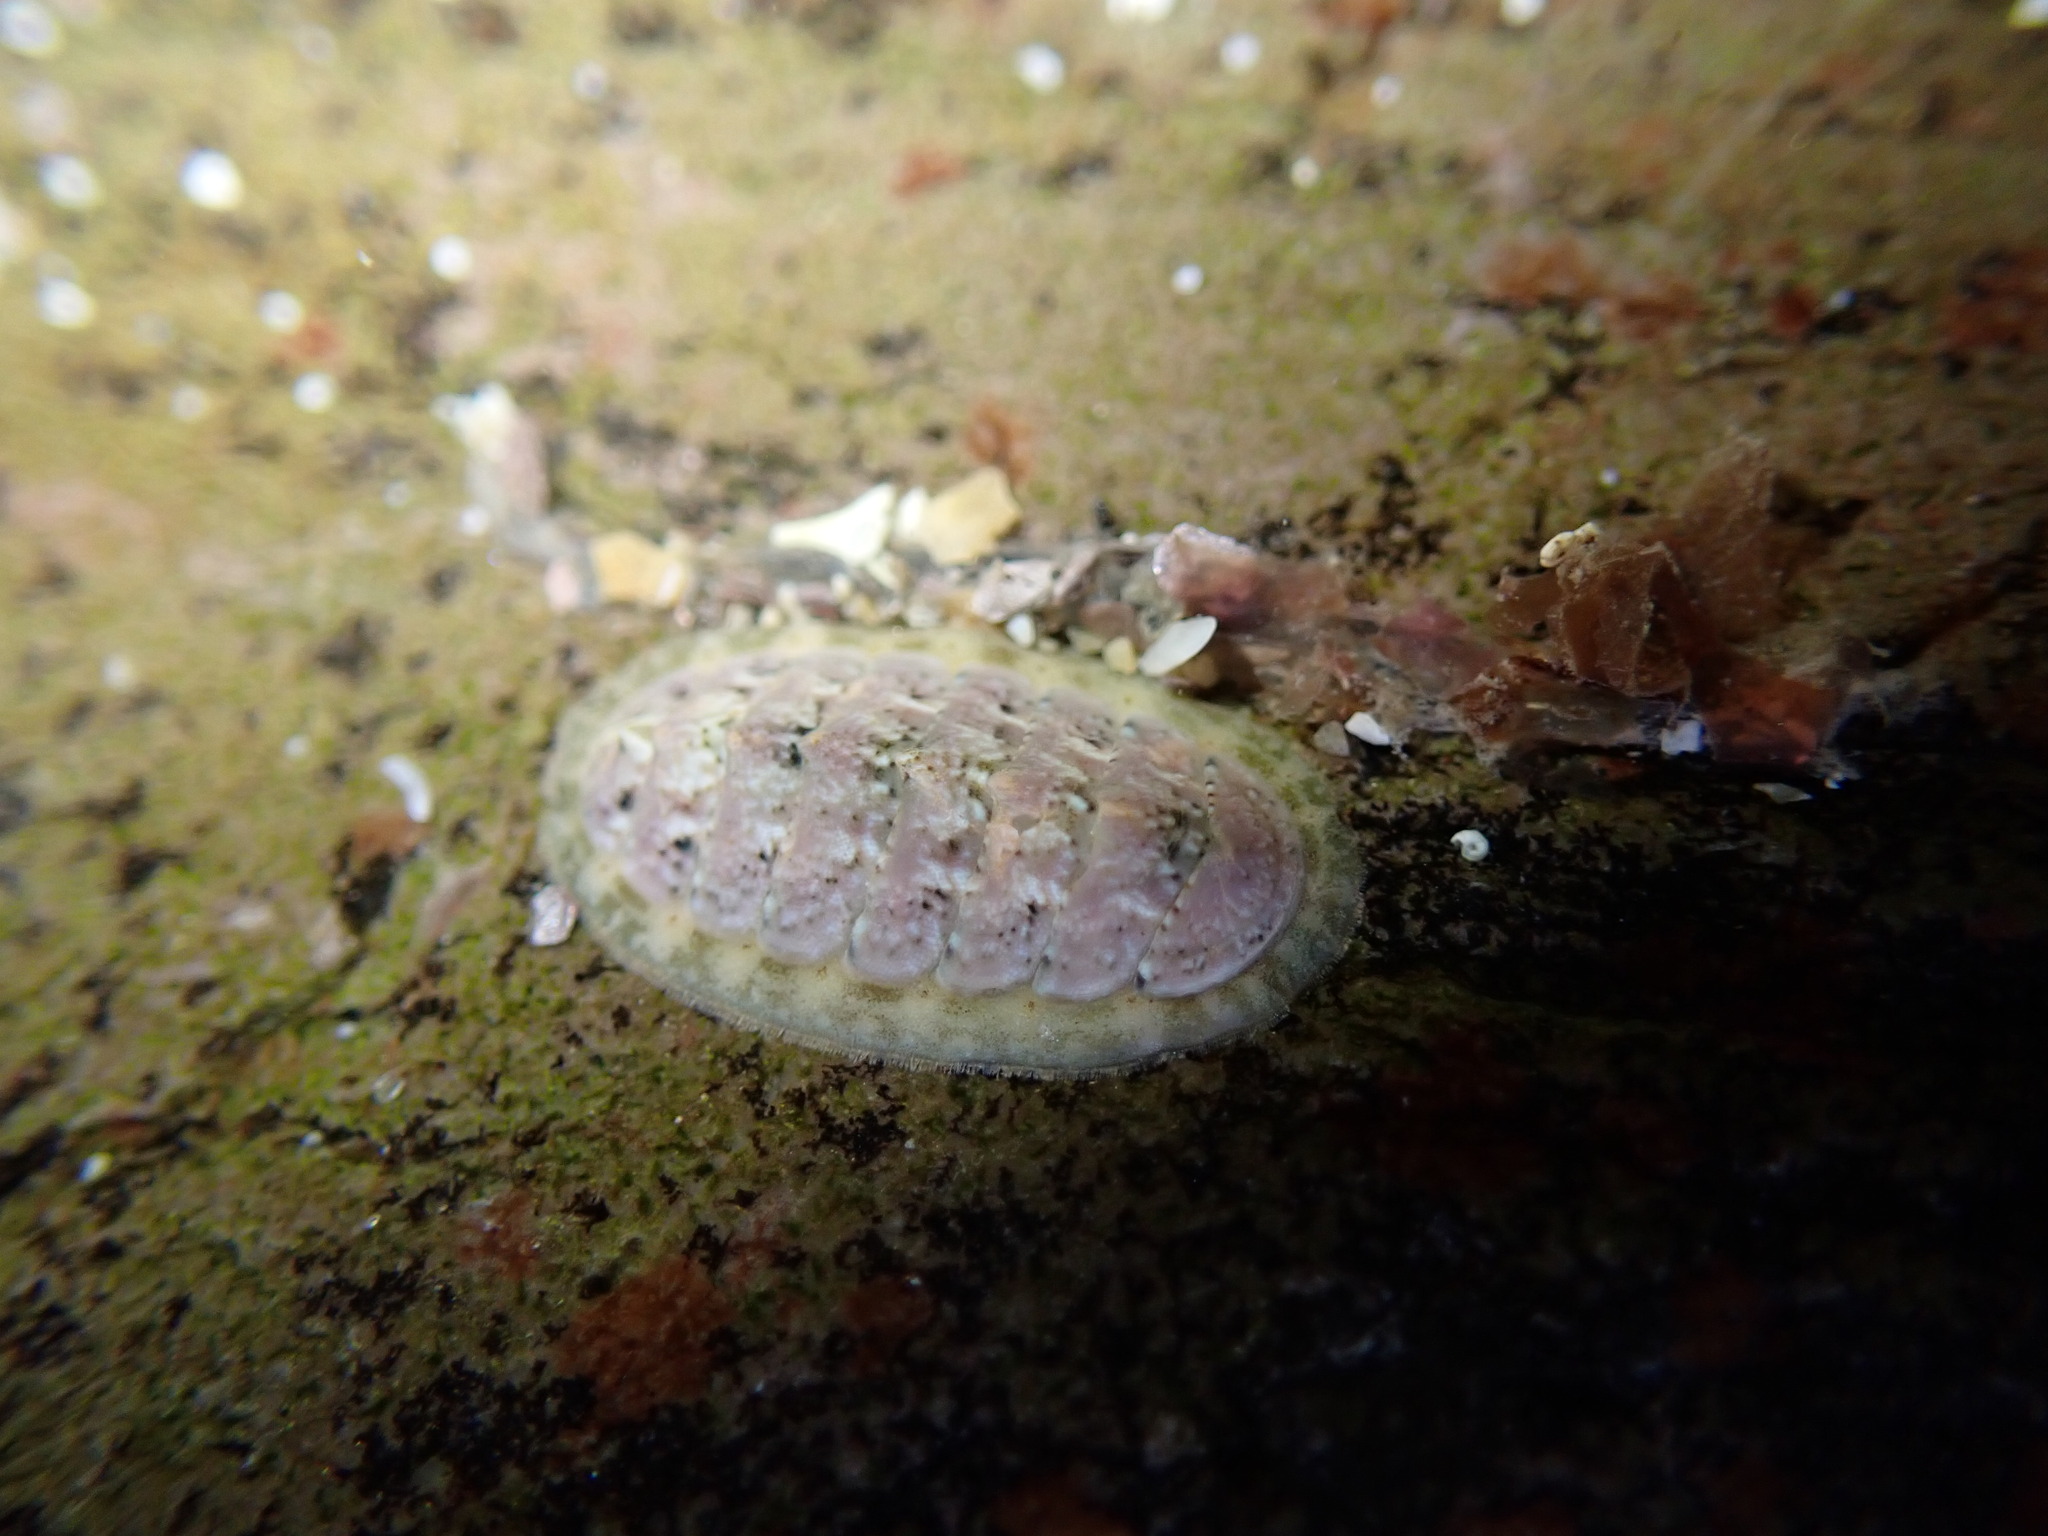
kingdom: Animalia
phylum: Mollusca
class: Polyplacophora
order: Chitonida
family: Tonicellidae
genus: Lepidochitona
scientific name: Lepidochitona cinerea
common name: Cinereous chiton
